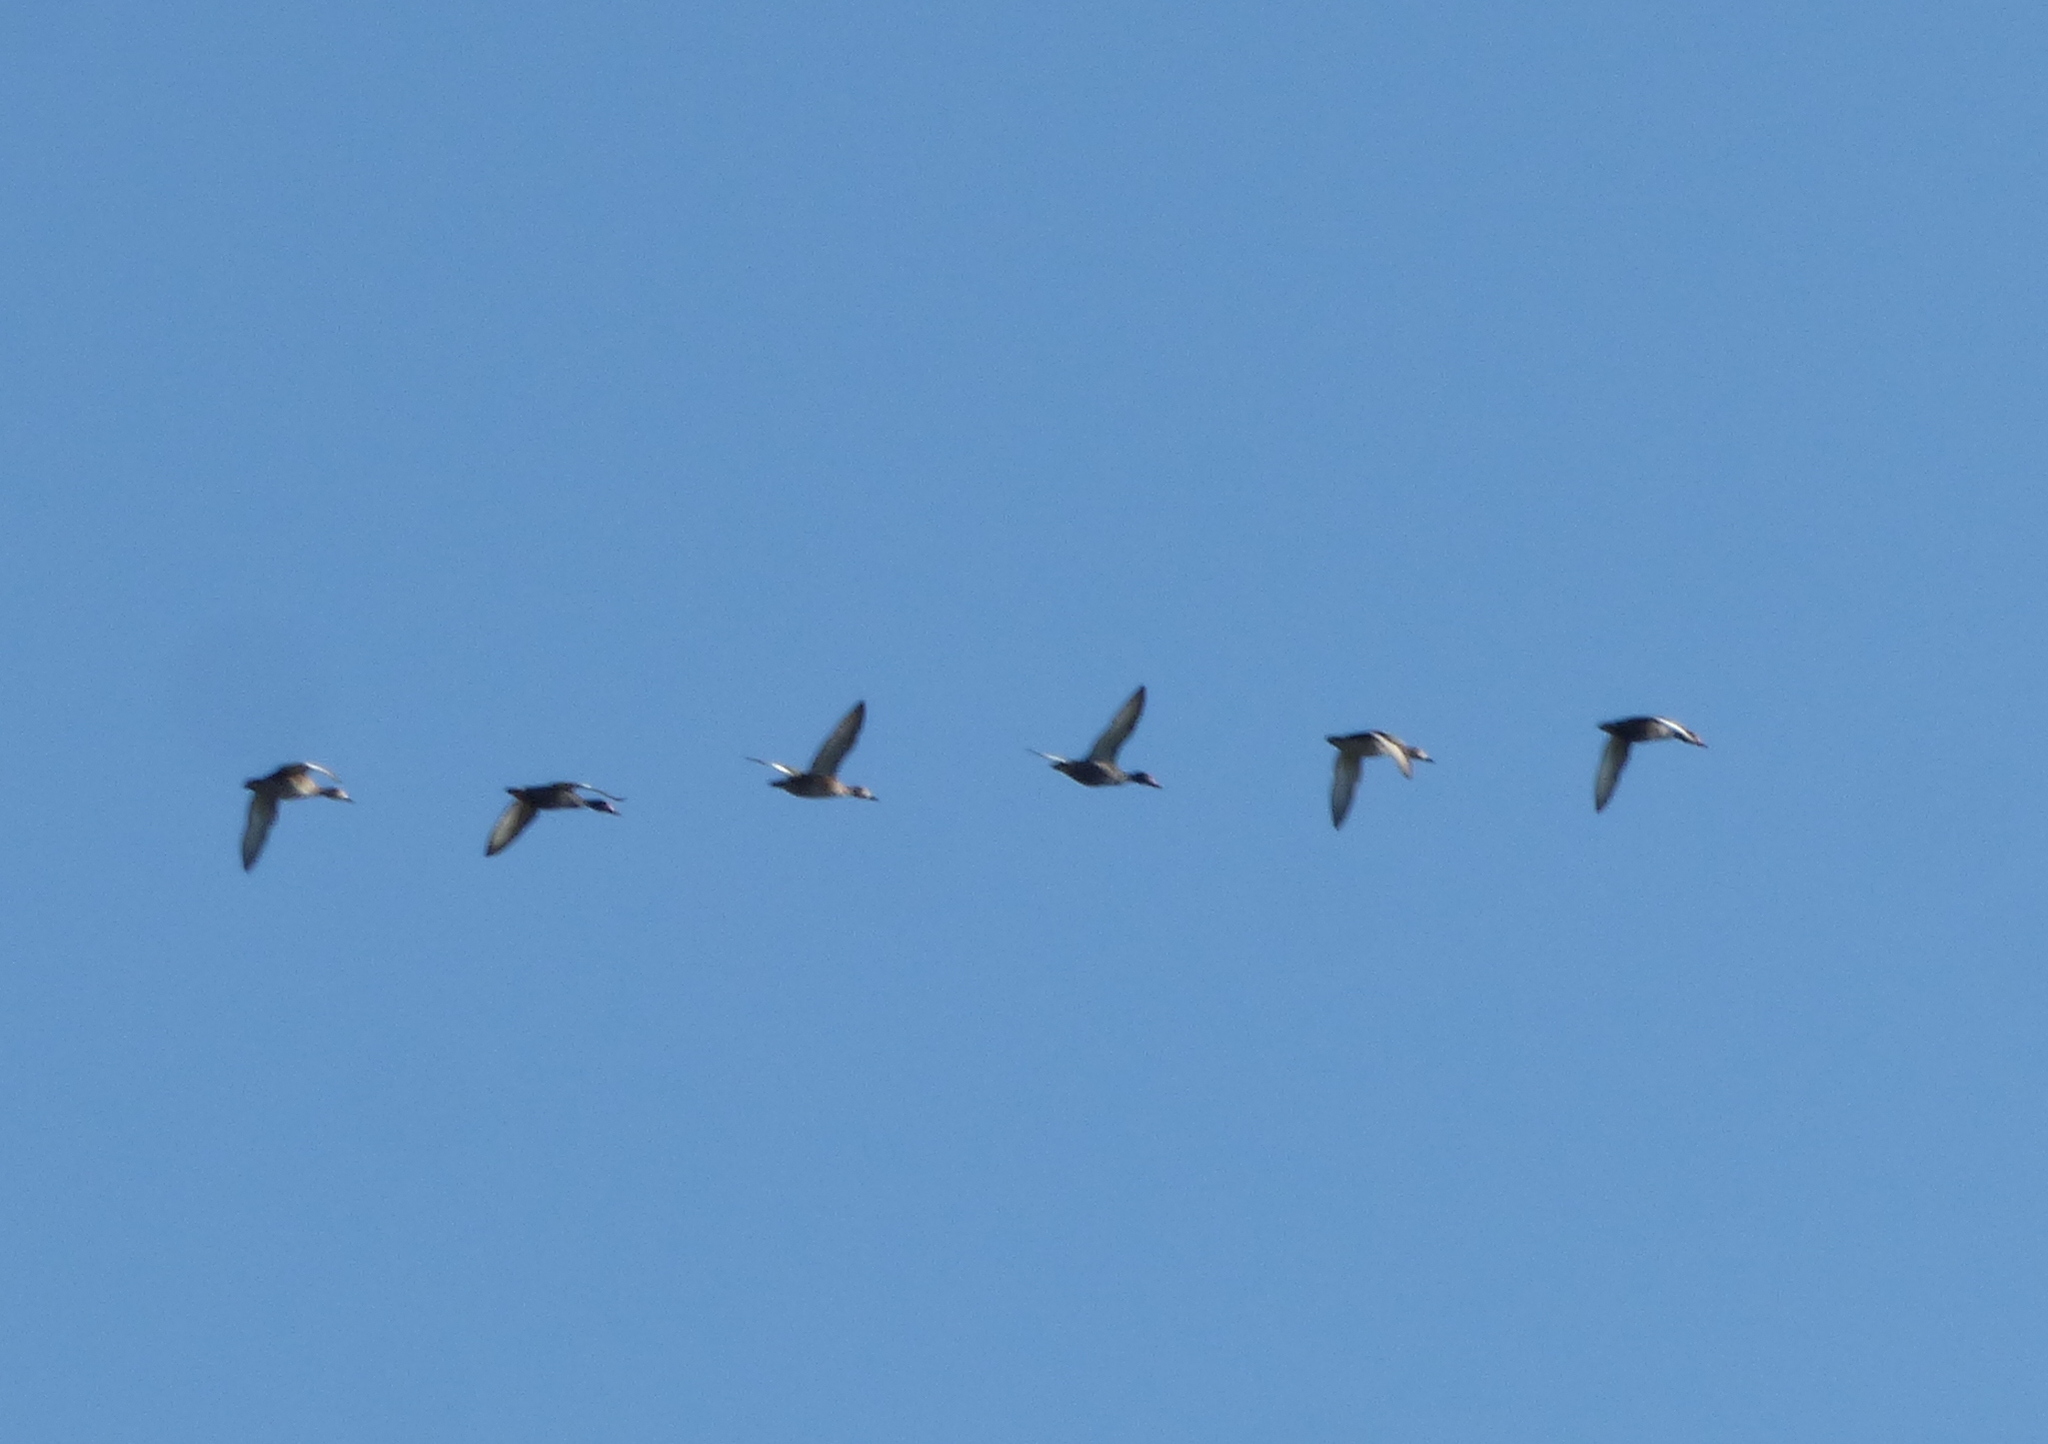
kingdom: Animalia
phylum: Chordata
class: Aves
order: Anseriformes
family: Anatidae
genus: Dendrocygna
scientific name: Dendrocygna viduata
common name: White-faced whistling duck
